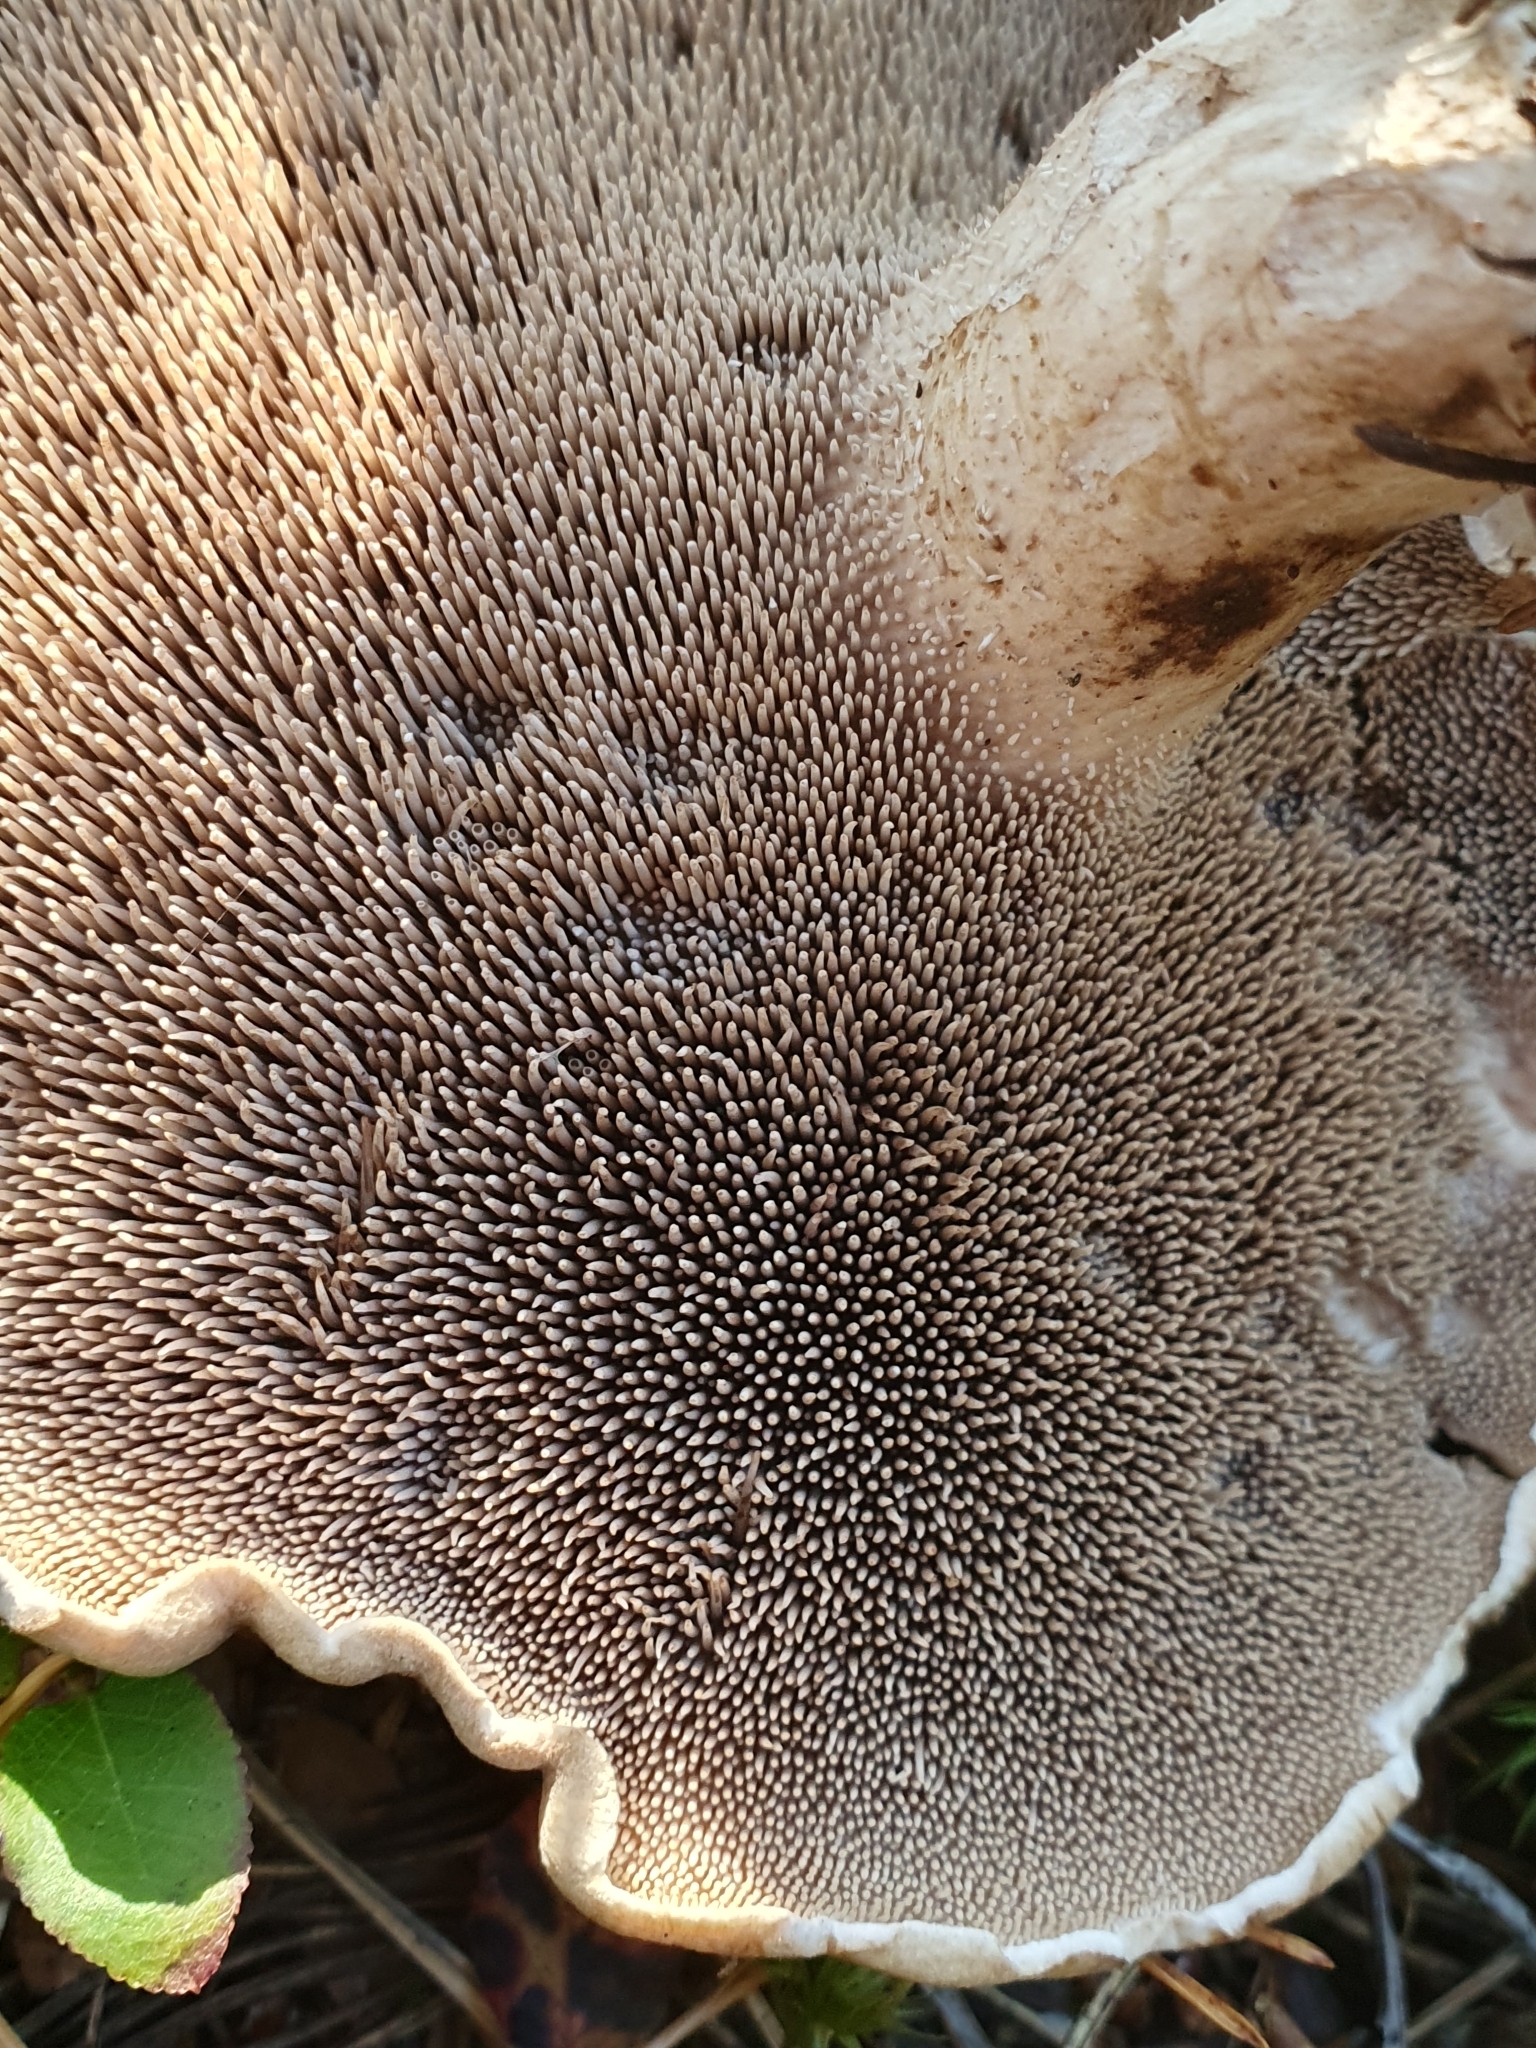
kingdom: Fungi
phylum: Basidiomycota
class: Agaricomycetes
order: Thelephorales
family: Bankeraceae
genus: Sarcodon
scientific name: Sarcodon squamosus
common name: Scaly tooth
